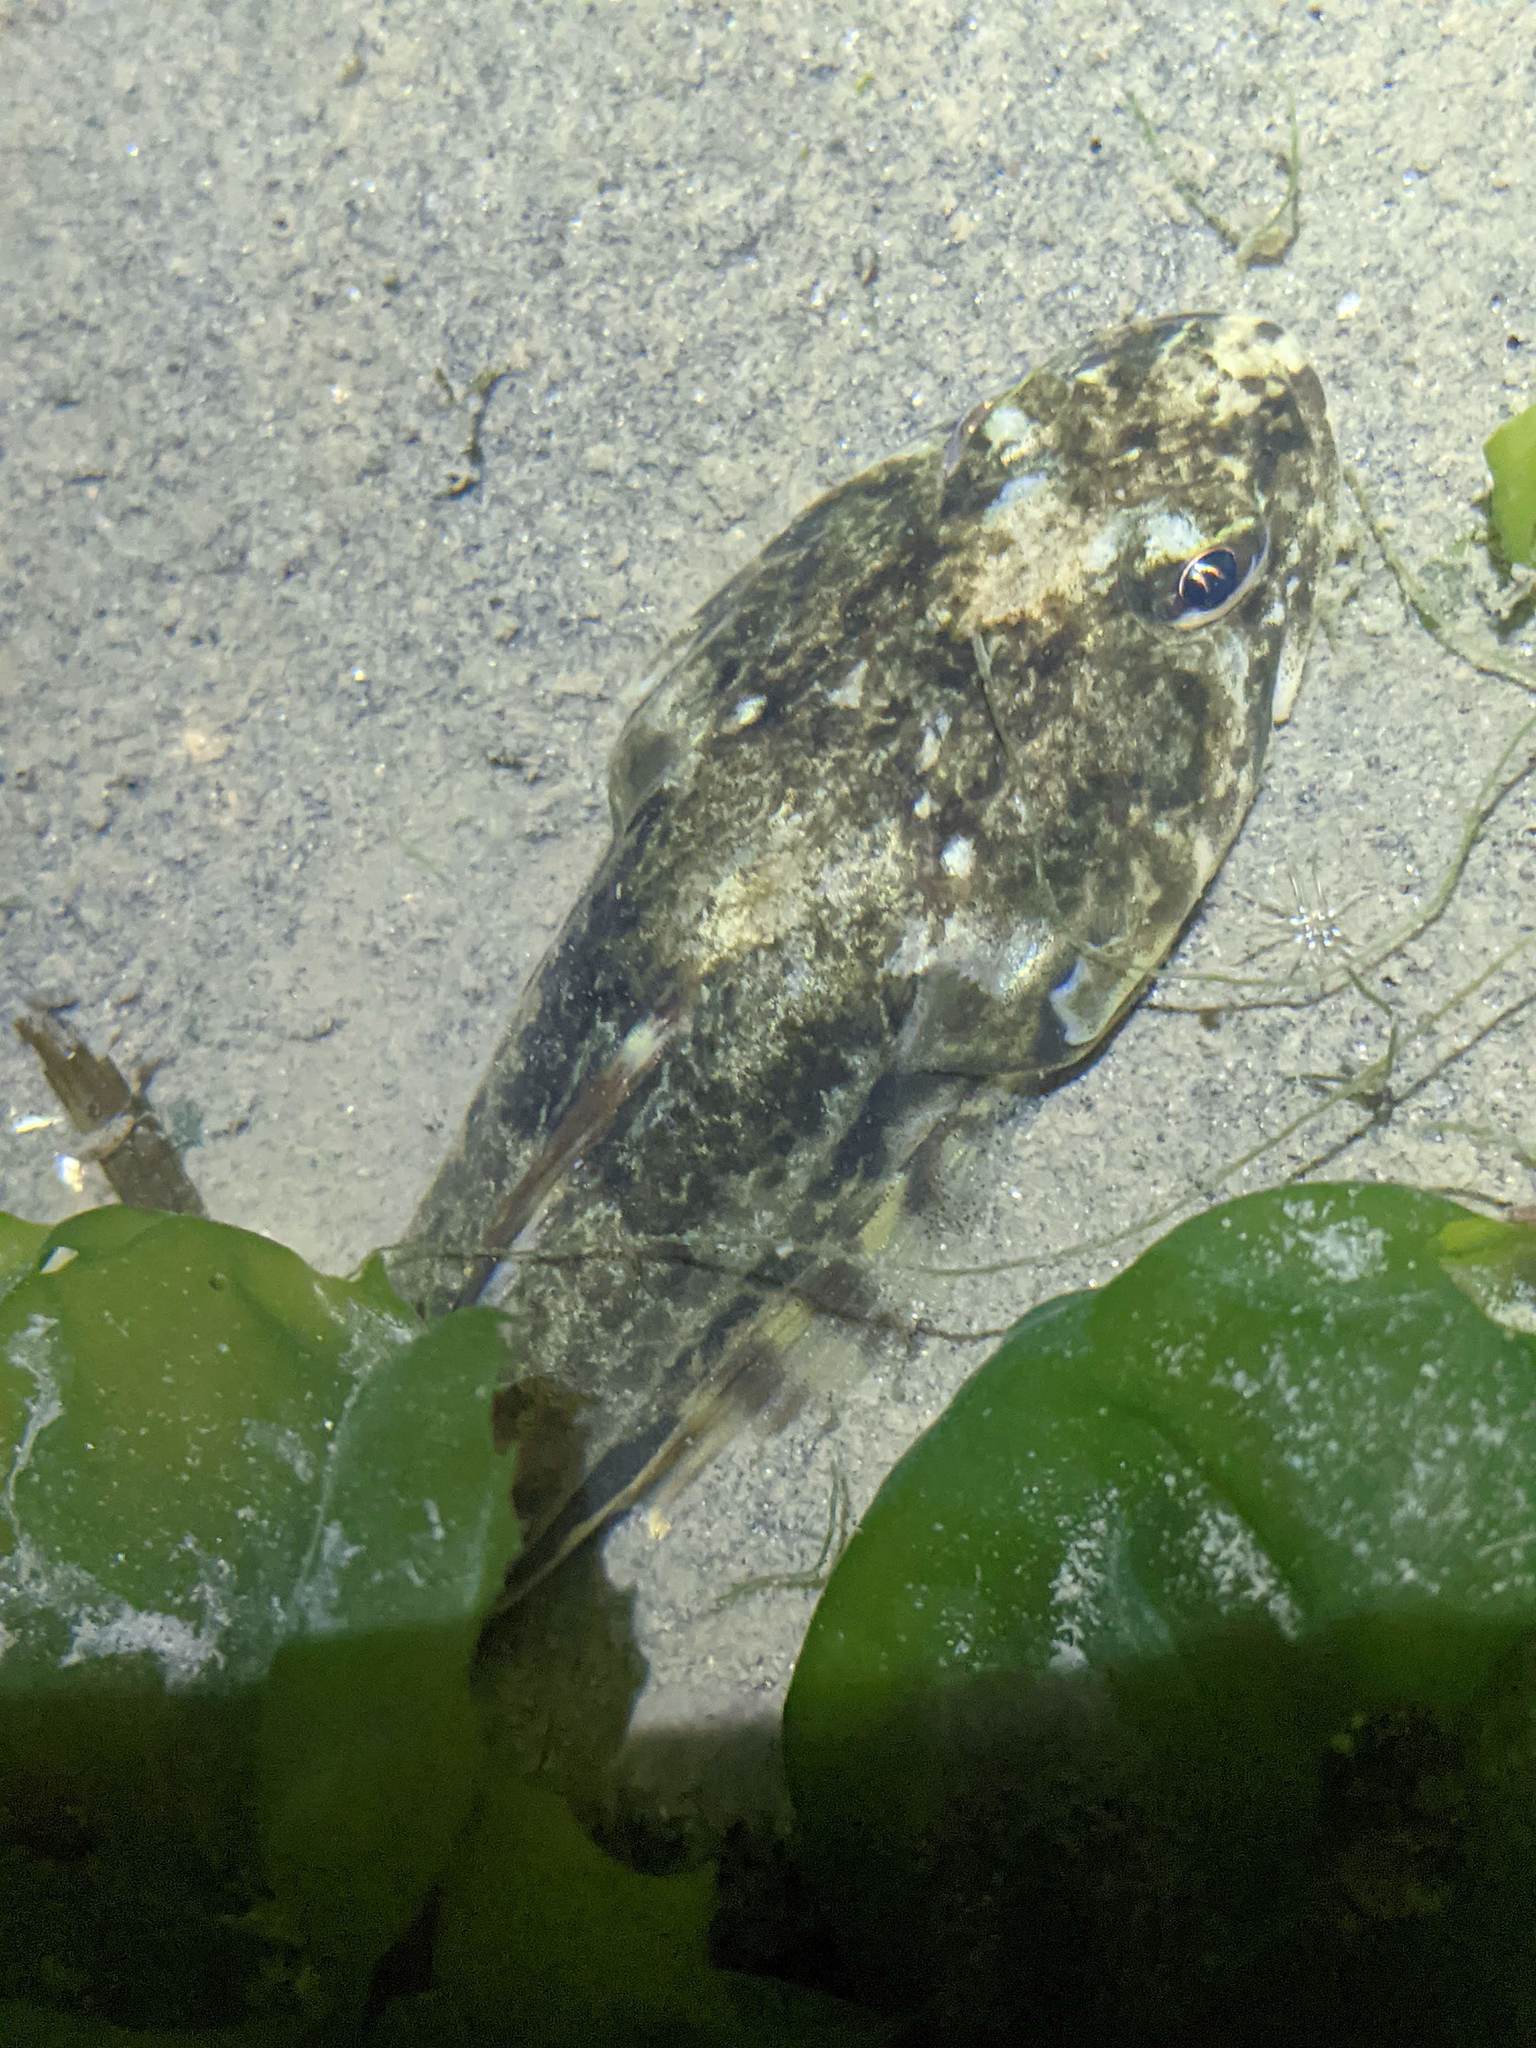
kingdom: Animalia
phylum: Chordata
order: Scorpaeniformes
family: Cottidae
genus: Leptocottus
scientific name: Leptocottus armatus
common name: Pacific staghorn sculpin
